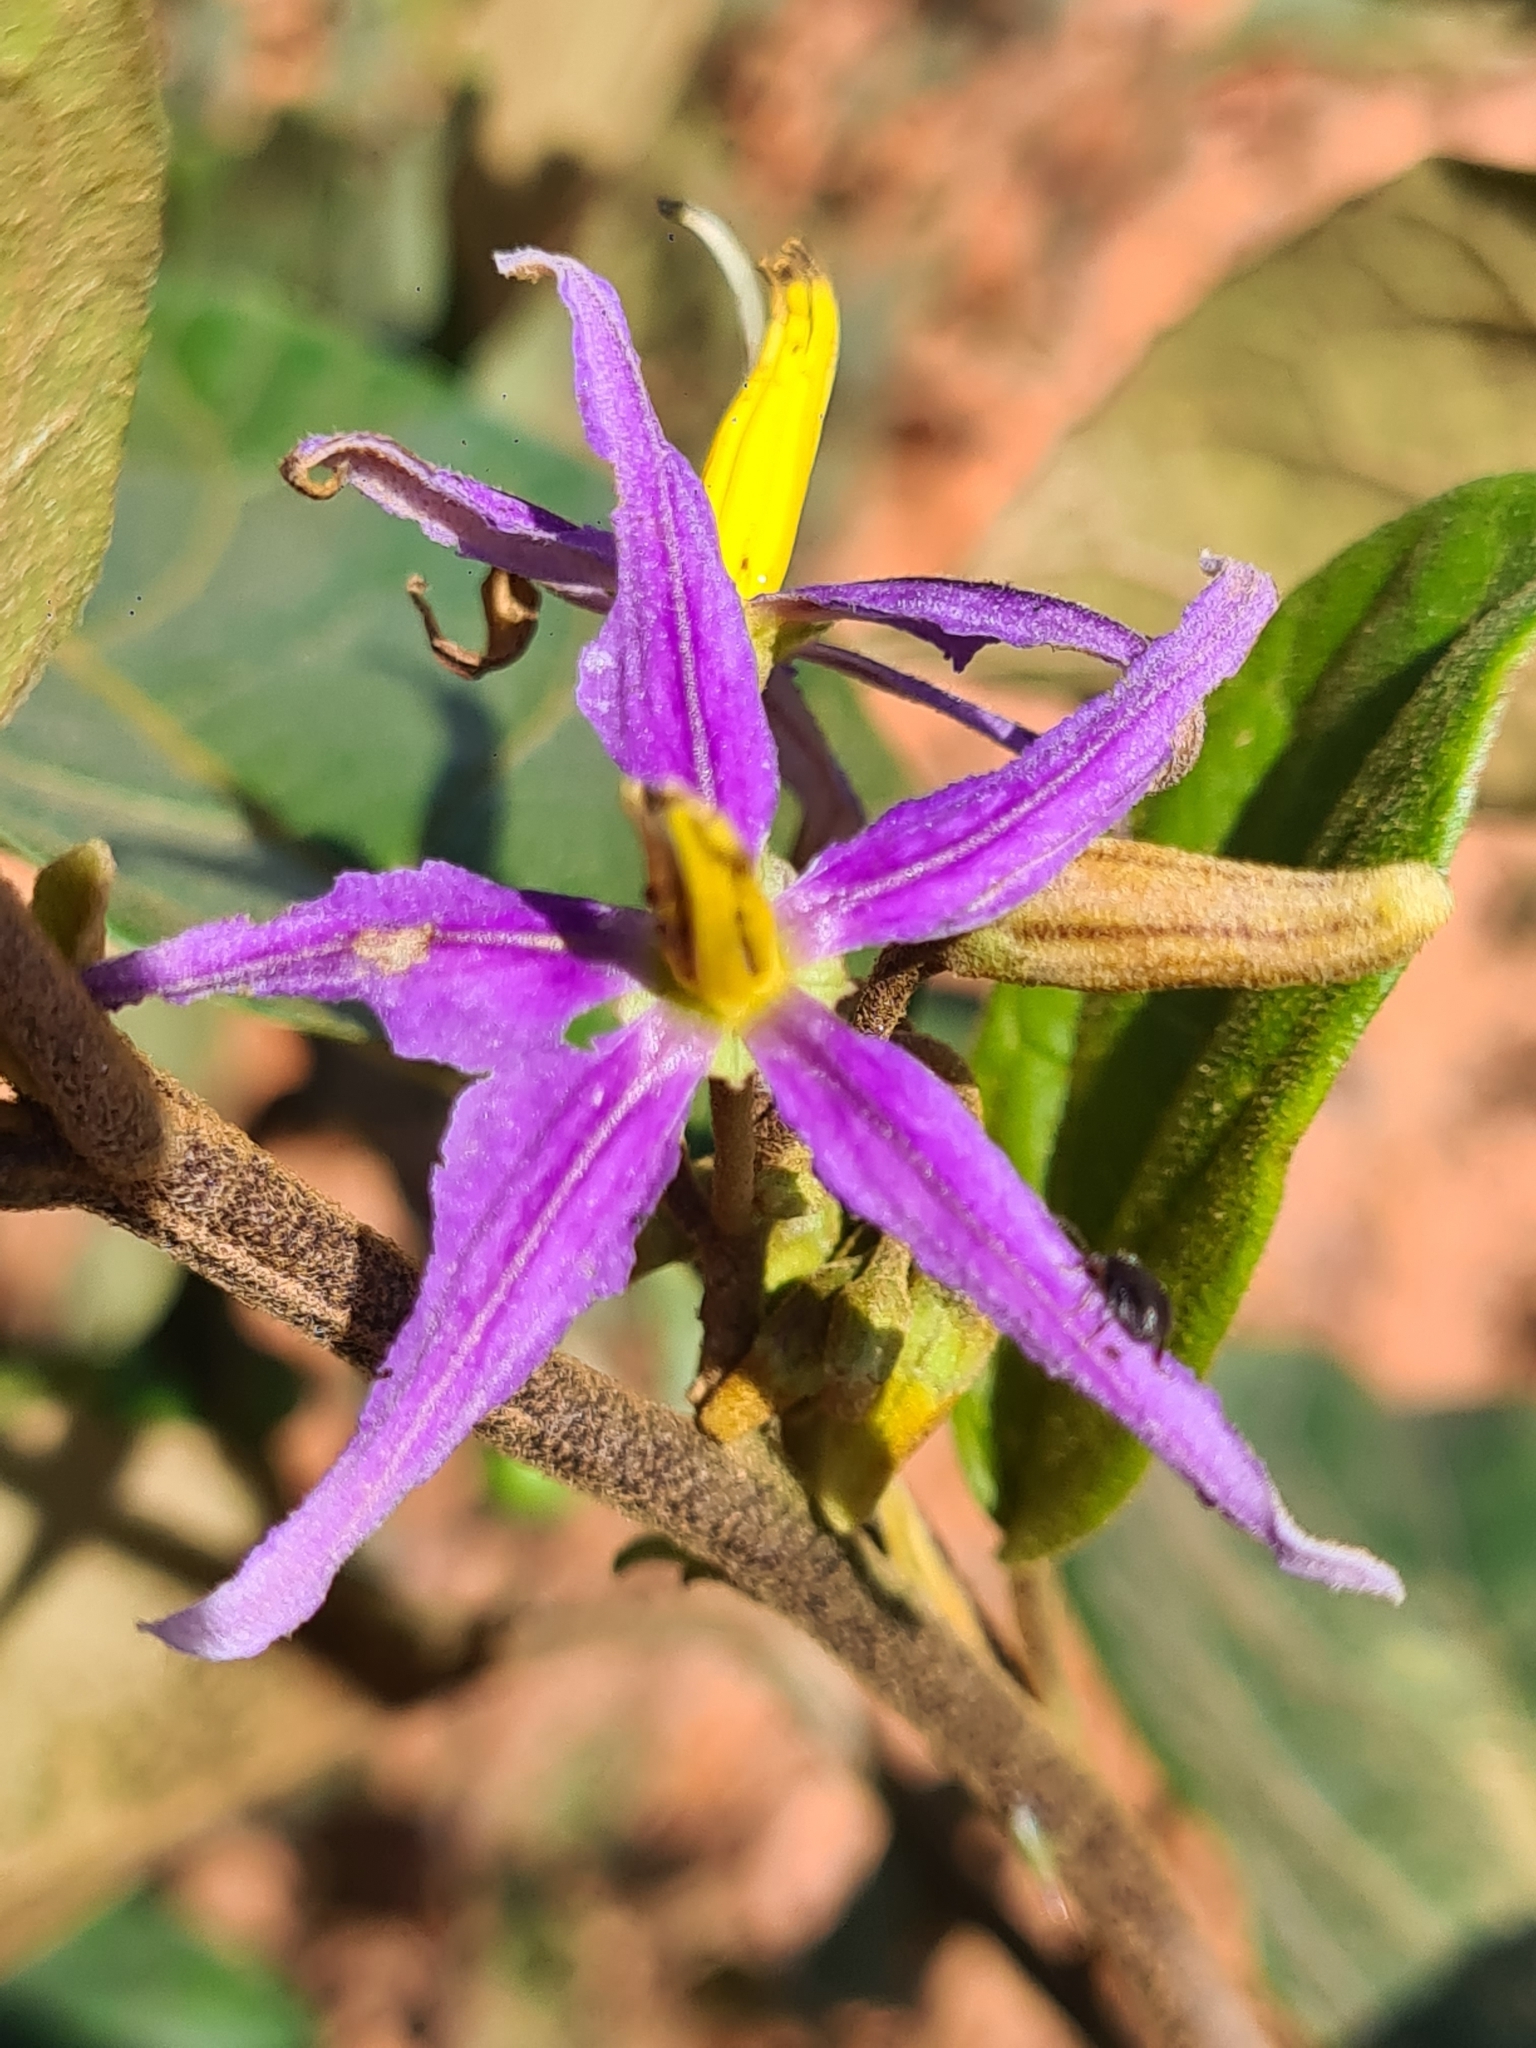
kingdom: Plantae
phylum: Tracheophyta
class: Magnoliopsida
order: Solanales
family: Solanaceae
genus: Solanum
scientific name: Solanum subinerme
